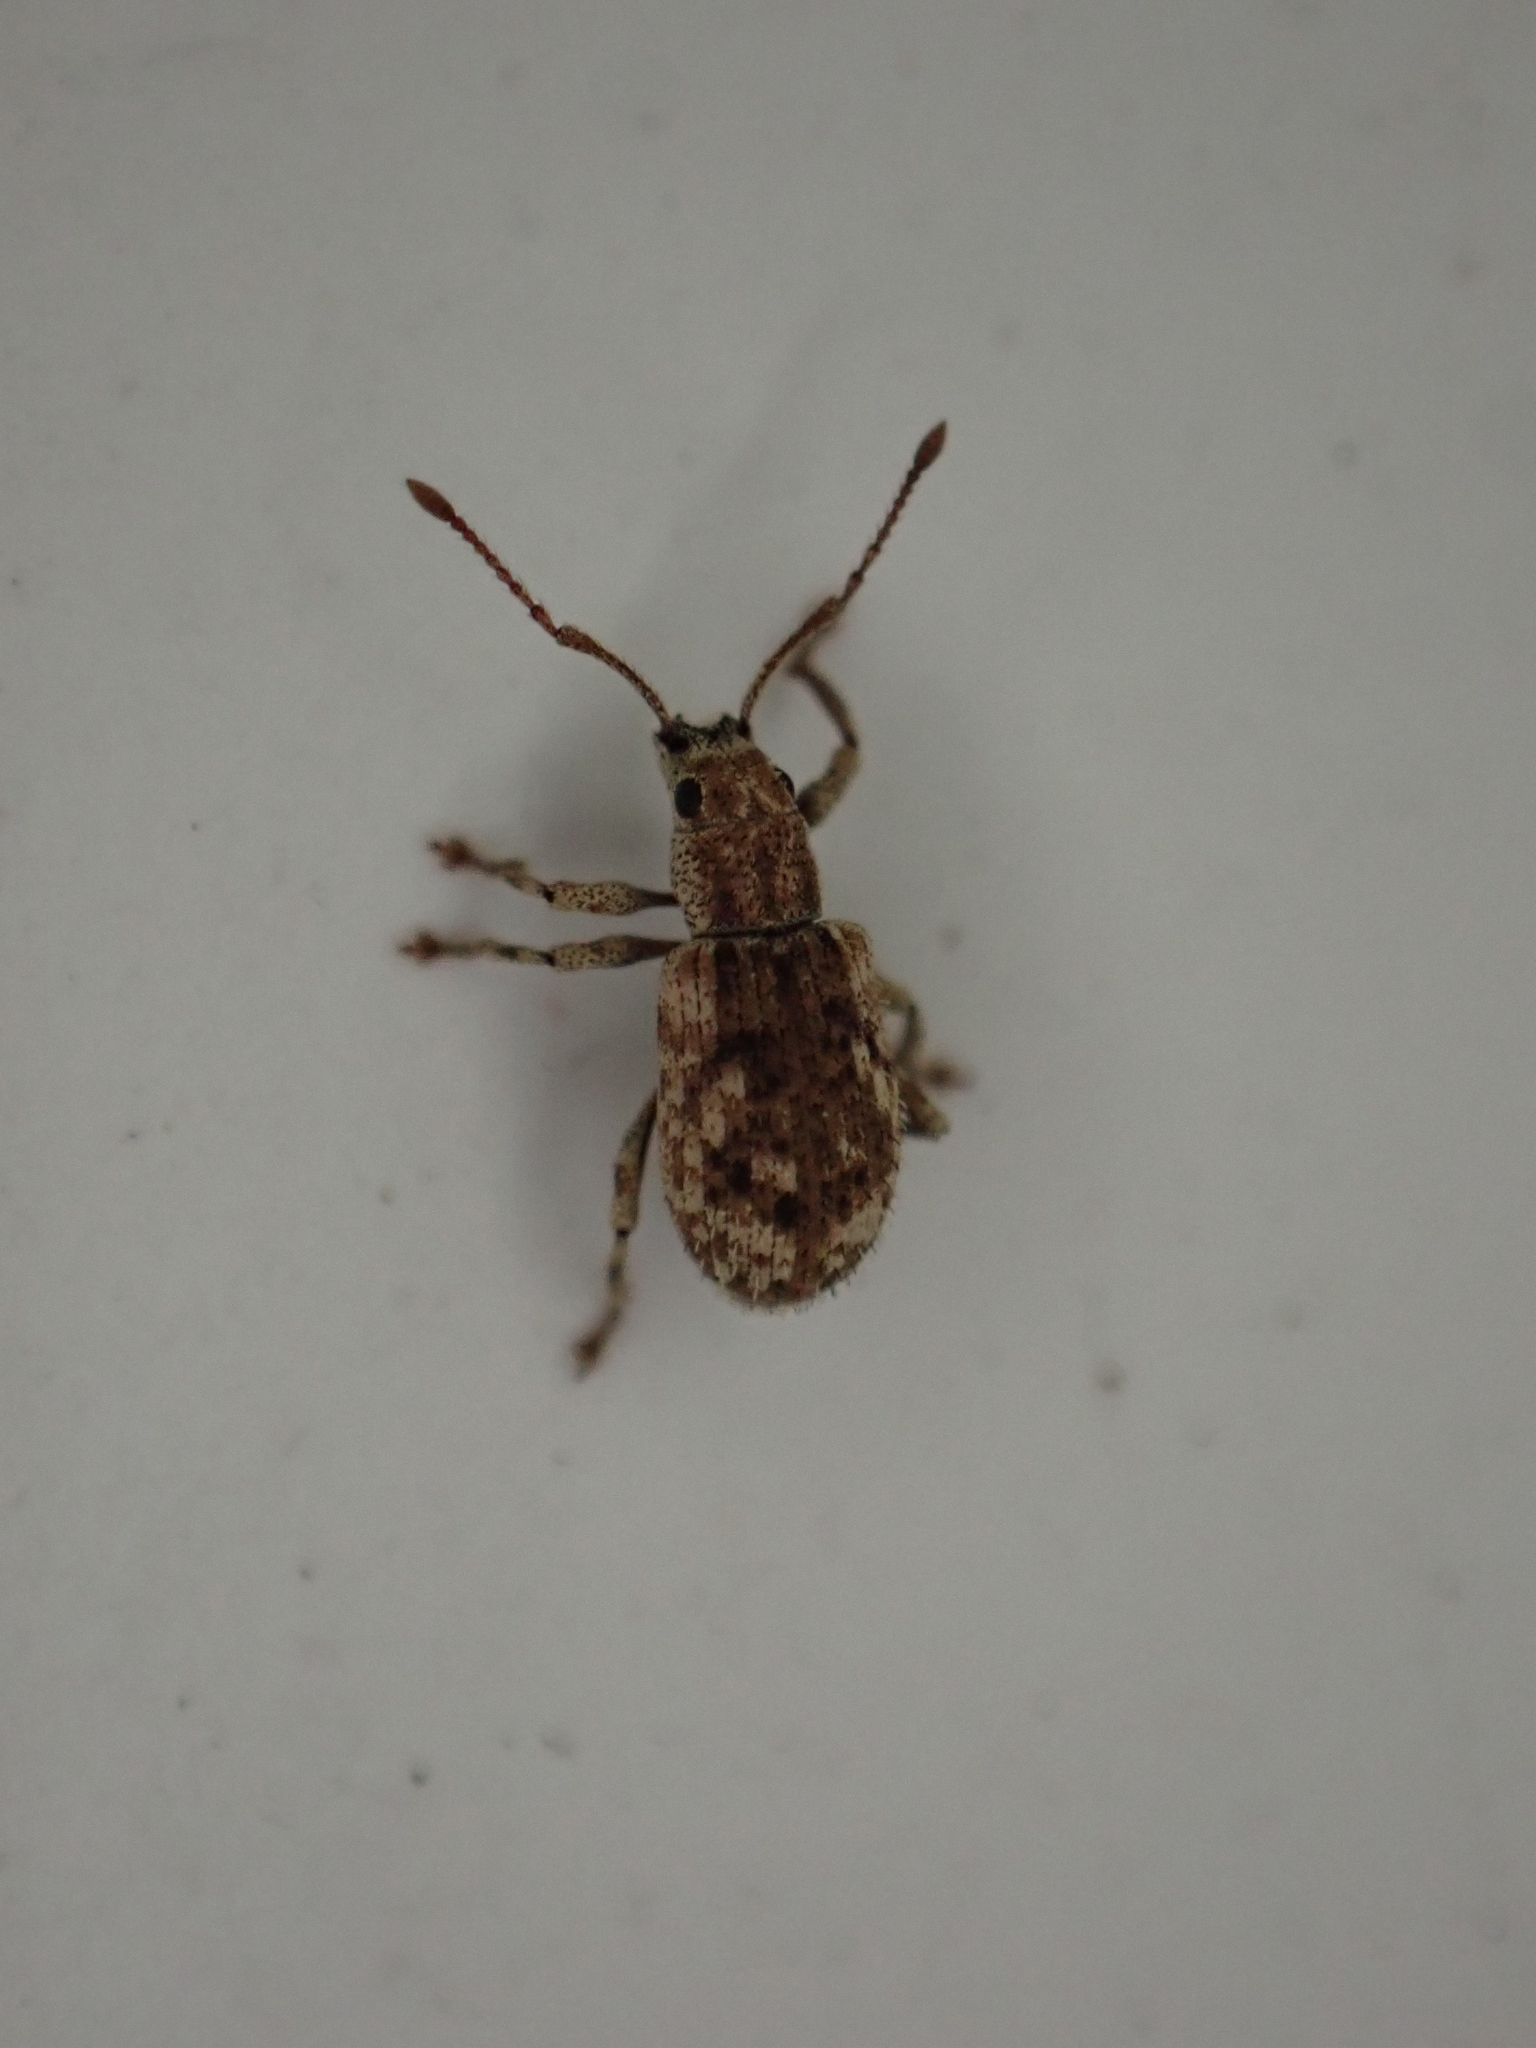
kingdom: Animalia
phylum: Arthropoda
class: Insecta
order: Coleoptera
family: Curculionidae
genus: Pseudoedophrys
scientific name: Pseudoedophrys hilleri
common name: Weevil
